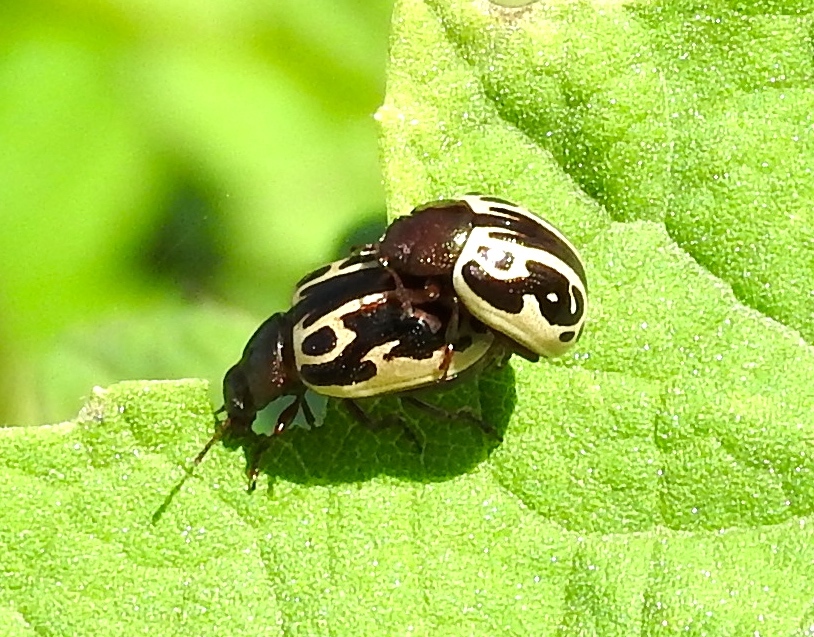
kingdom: Animalia
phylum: Arthropoda
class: Insecta
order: Coleoptera
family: Chrysomelidae
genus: Calligrapha
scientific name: Calligrapha
